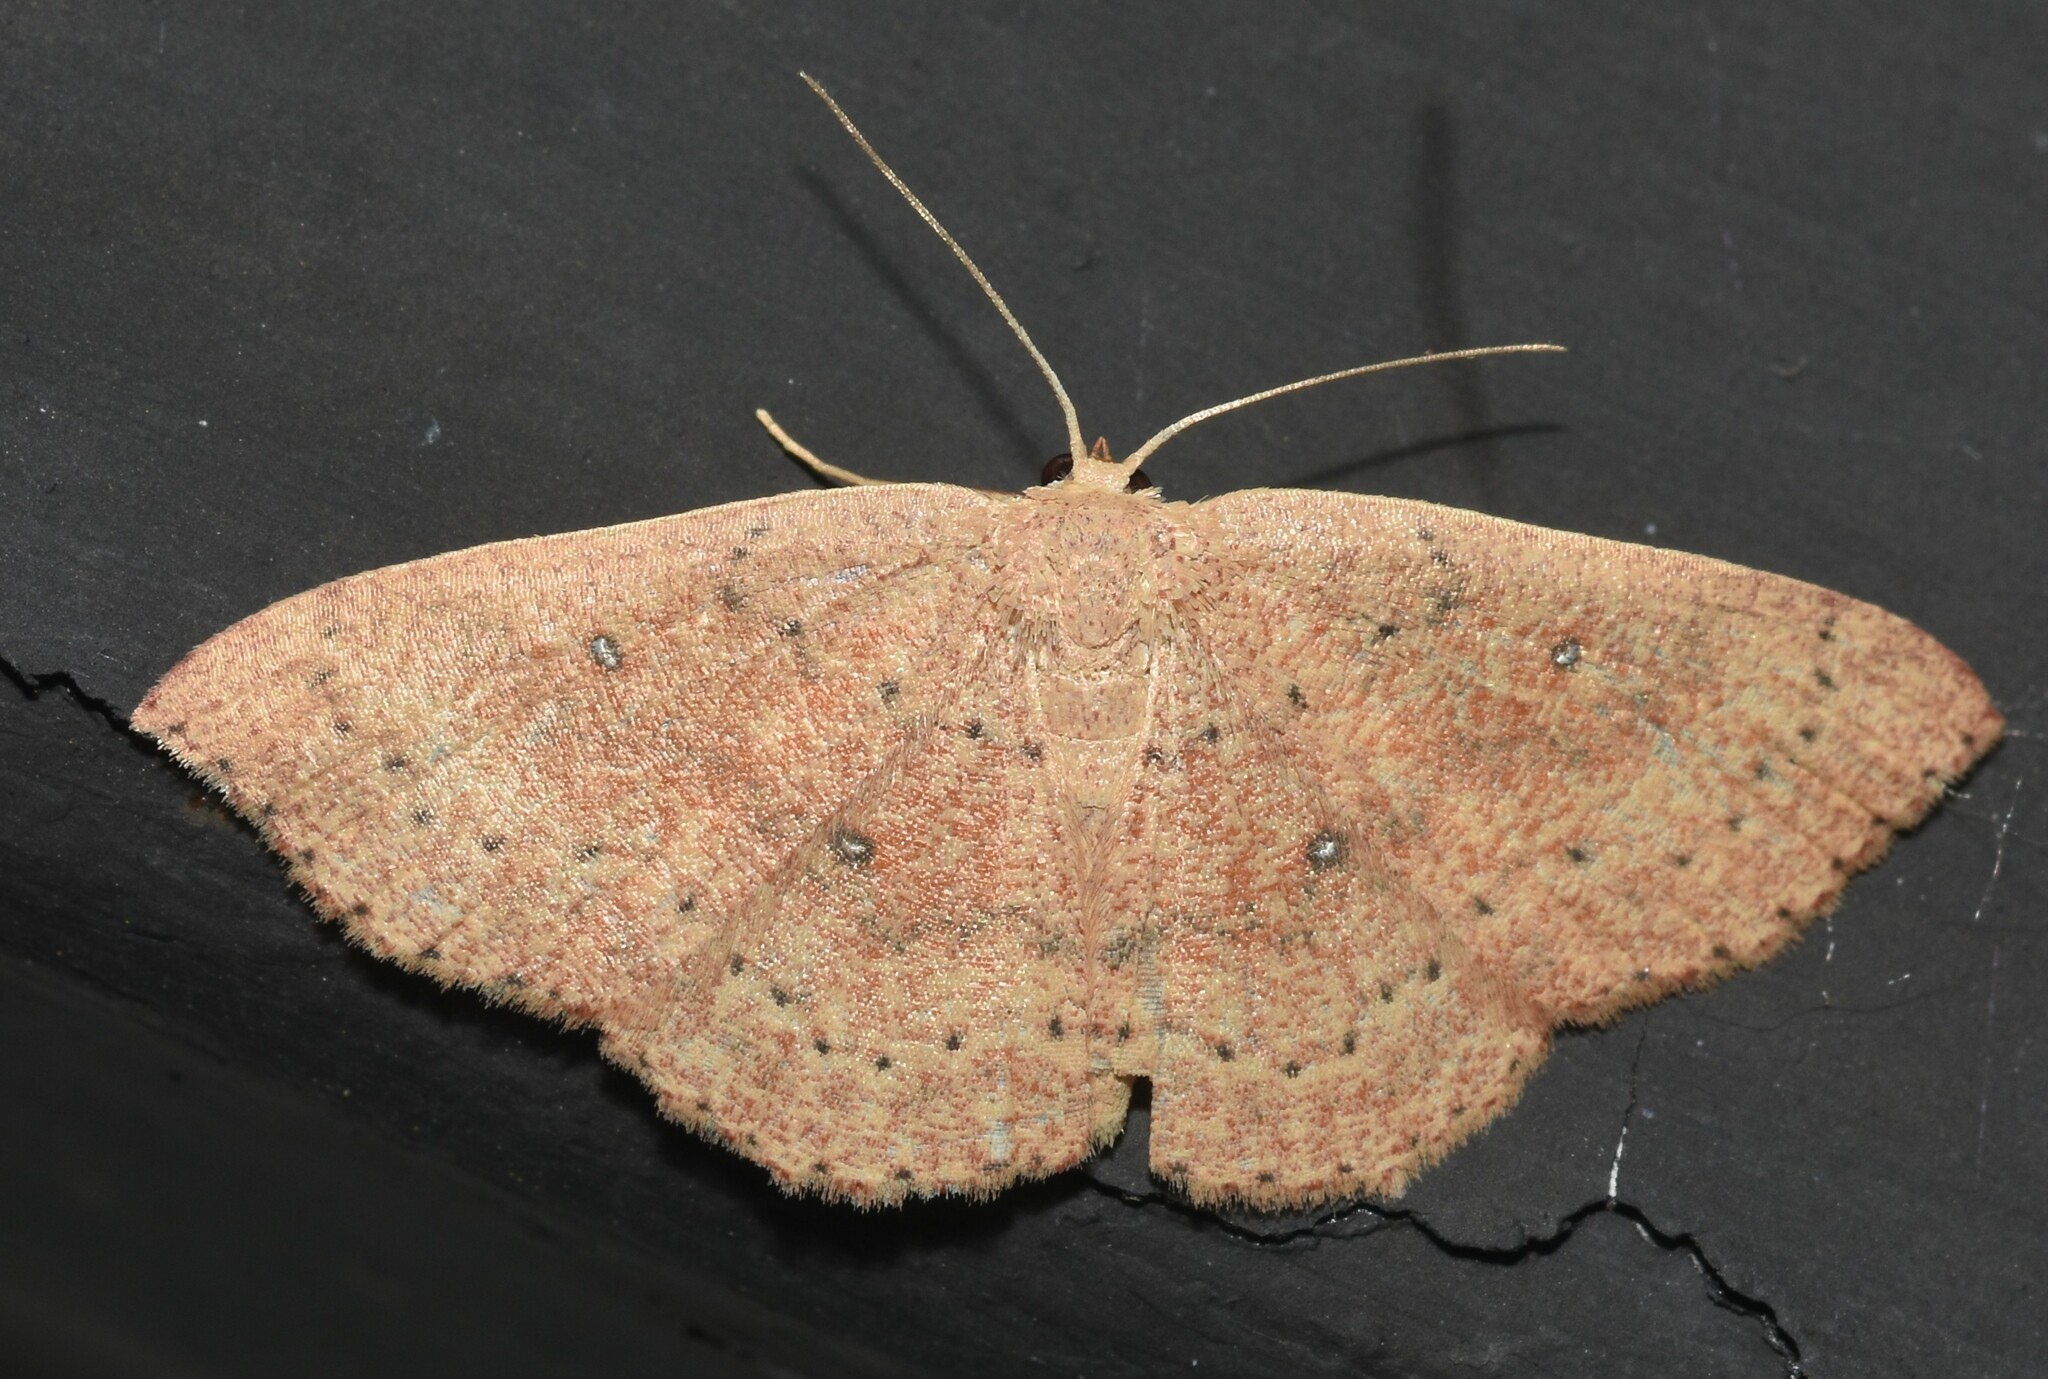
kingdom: Animalia
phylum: Arthropoda
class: Insecta
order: Lepidoptera
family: Geometridae
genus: Cyclophora
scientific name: Cyclophora packardi
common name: Packard's wave
